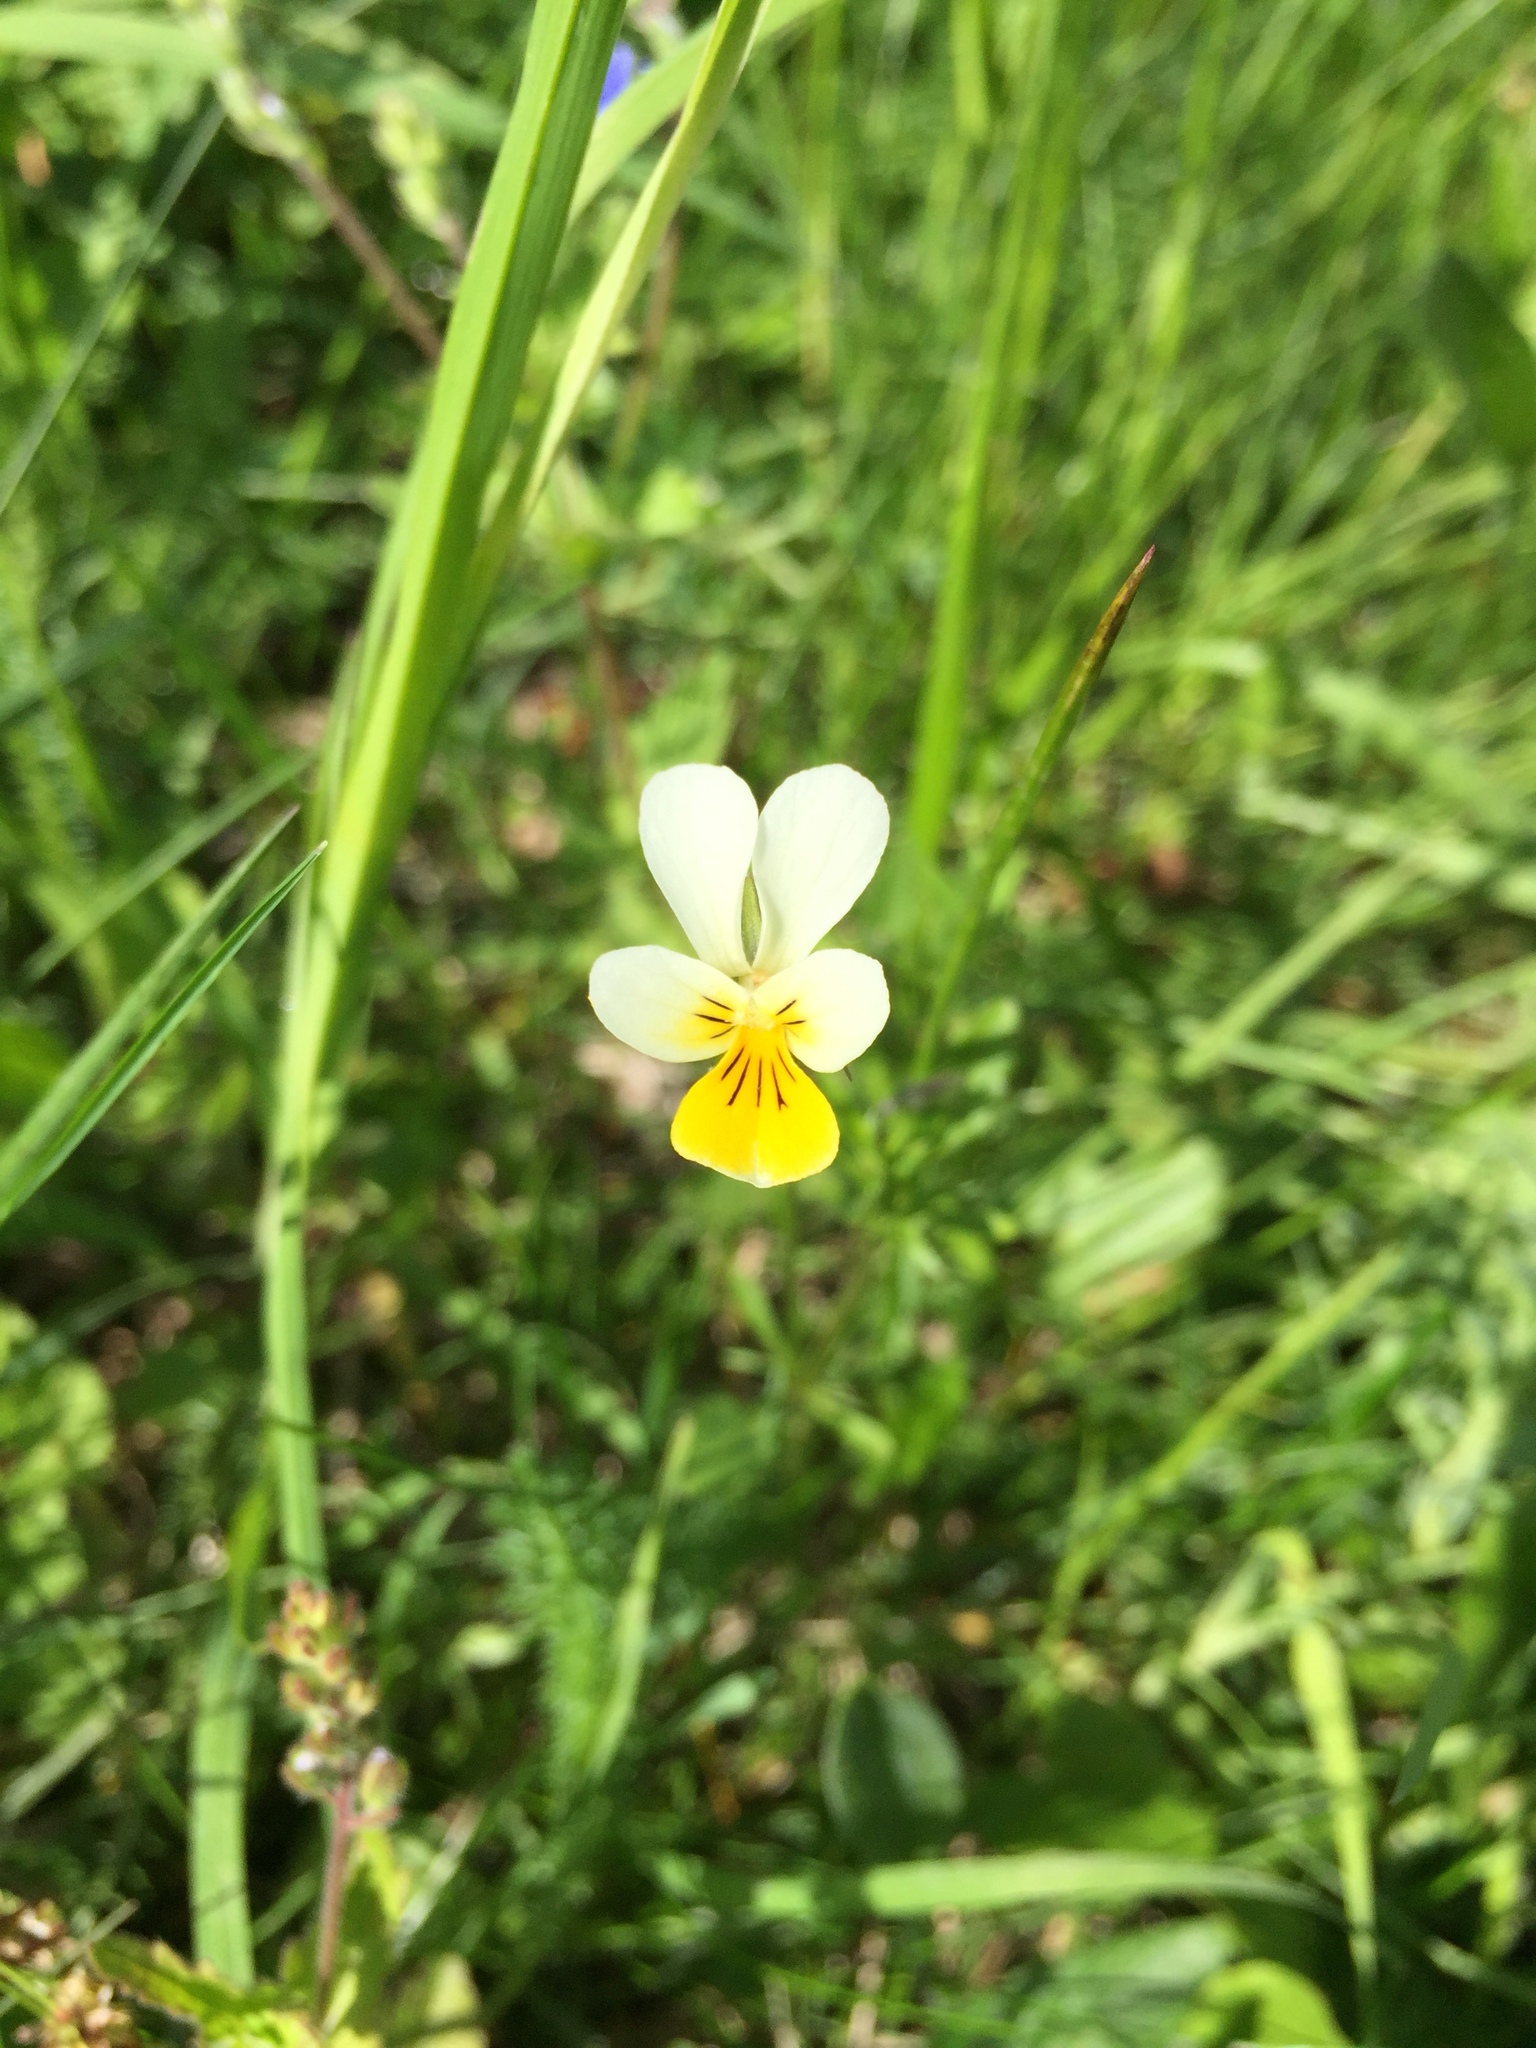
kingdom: Plantae
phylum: Tracheophyta
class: Magnoliopsida
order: Malpighiales
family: Violaceae
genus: Viola
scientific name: Viola arvensis
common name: Field pansy
